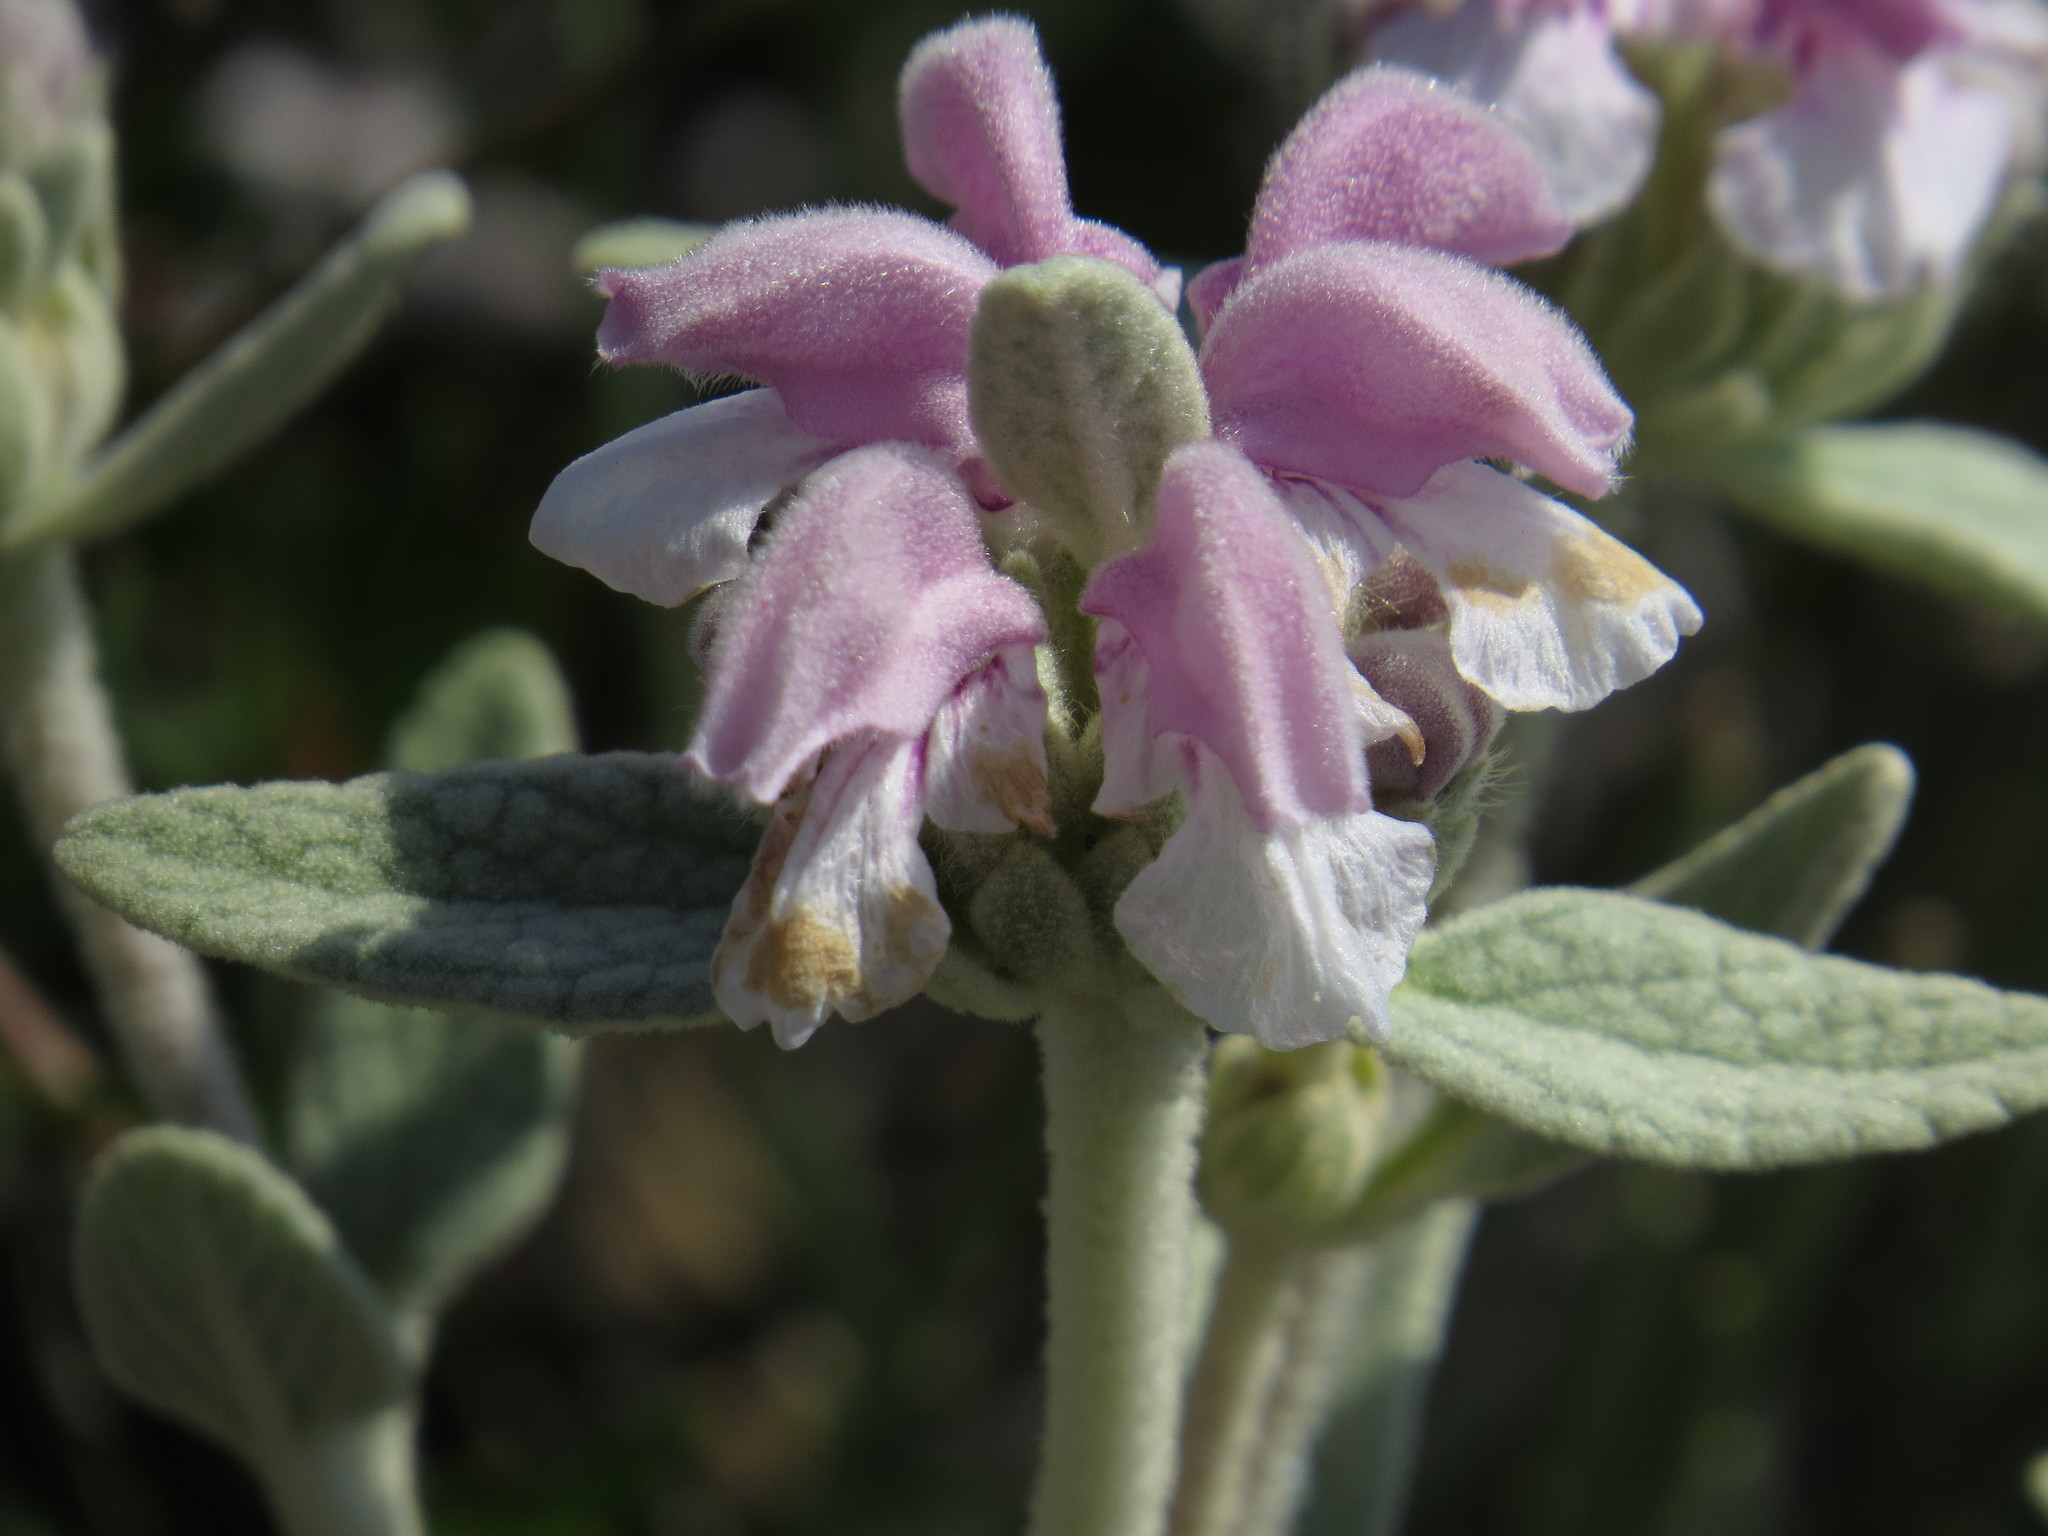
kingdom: Plantae
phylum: Tracheophyta
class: Magnoliopsida
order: Lamiales
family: Lamiaceae
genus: Phlomis
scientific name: Phlomis purpurea
